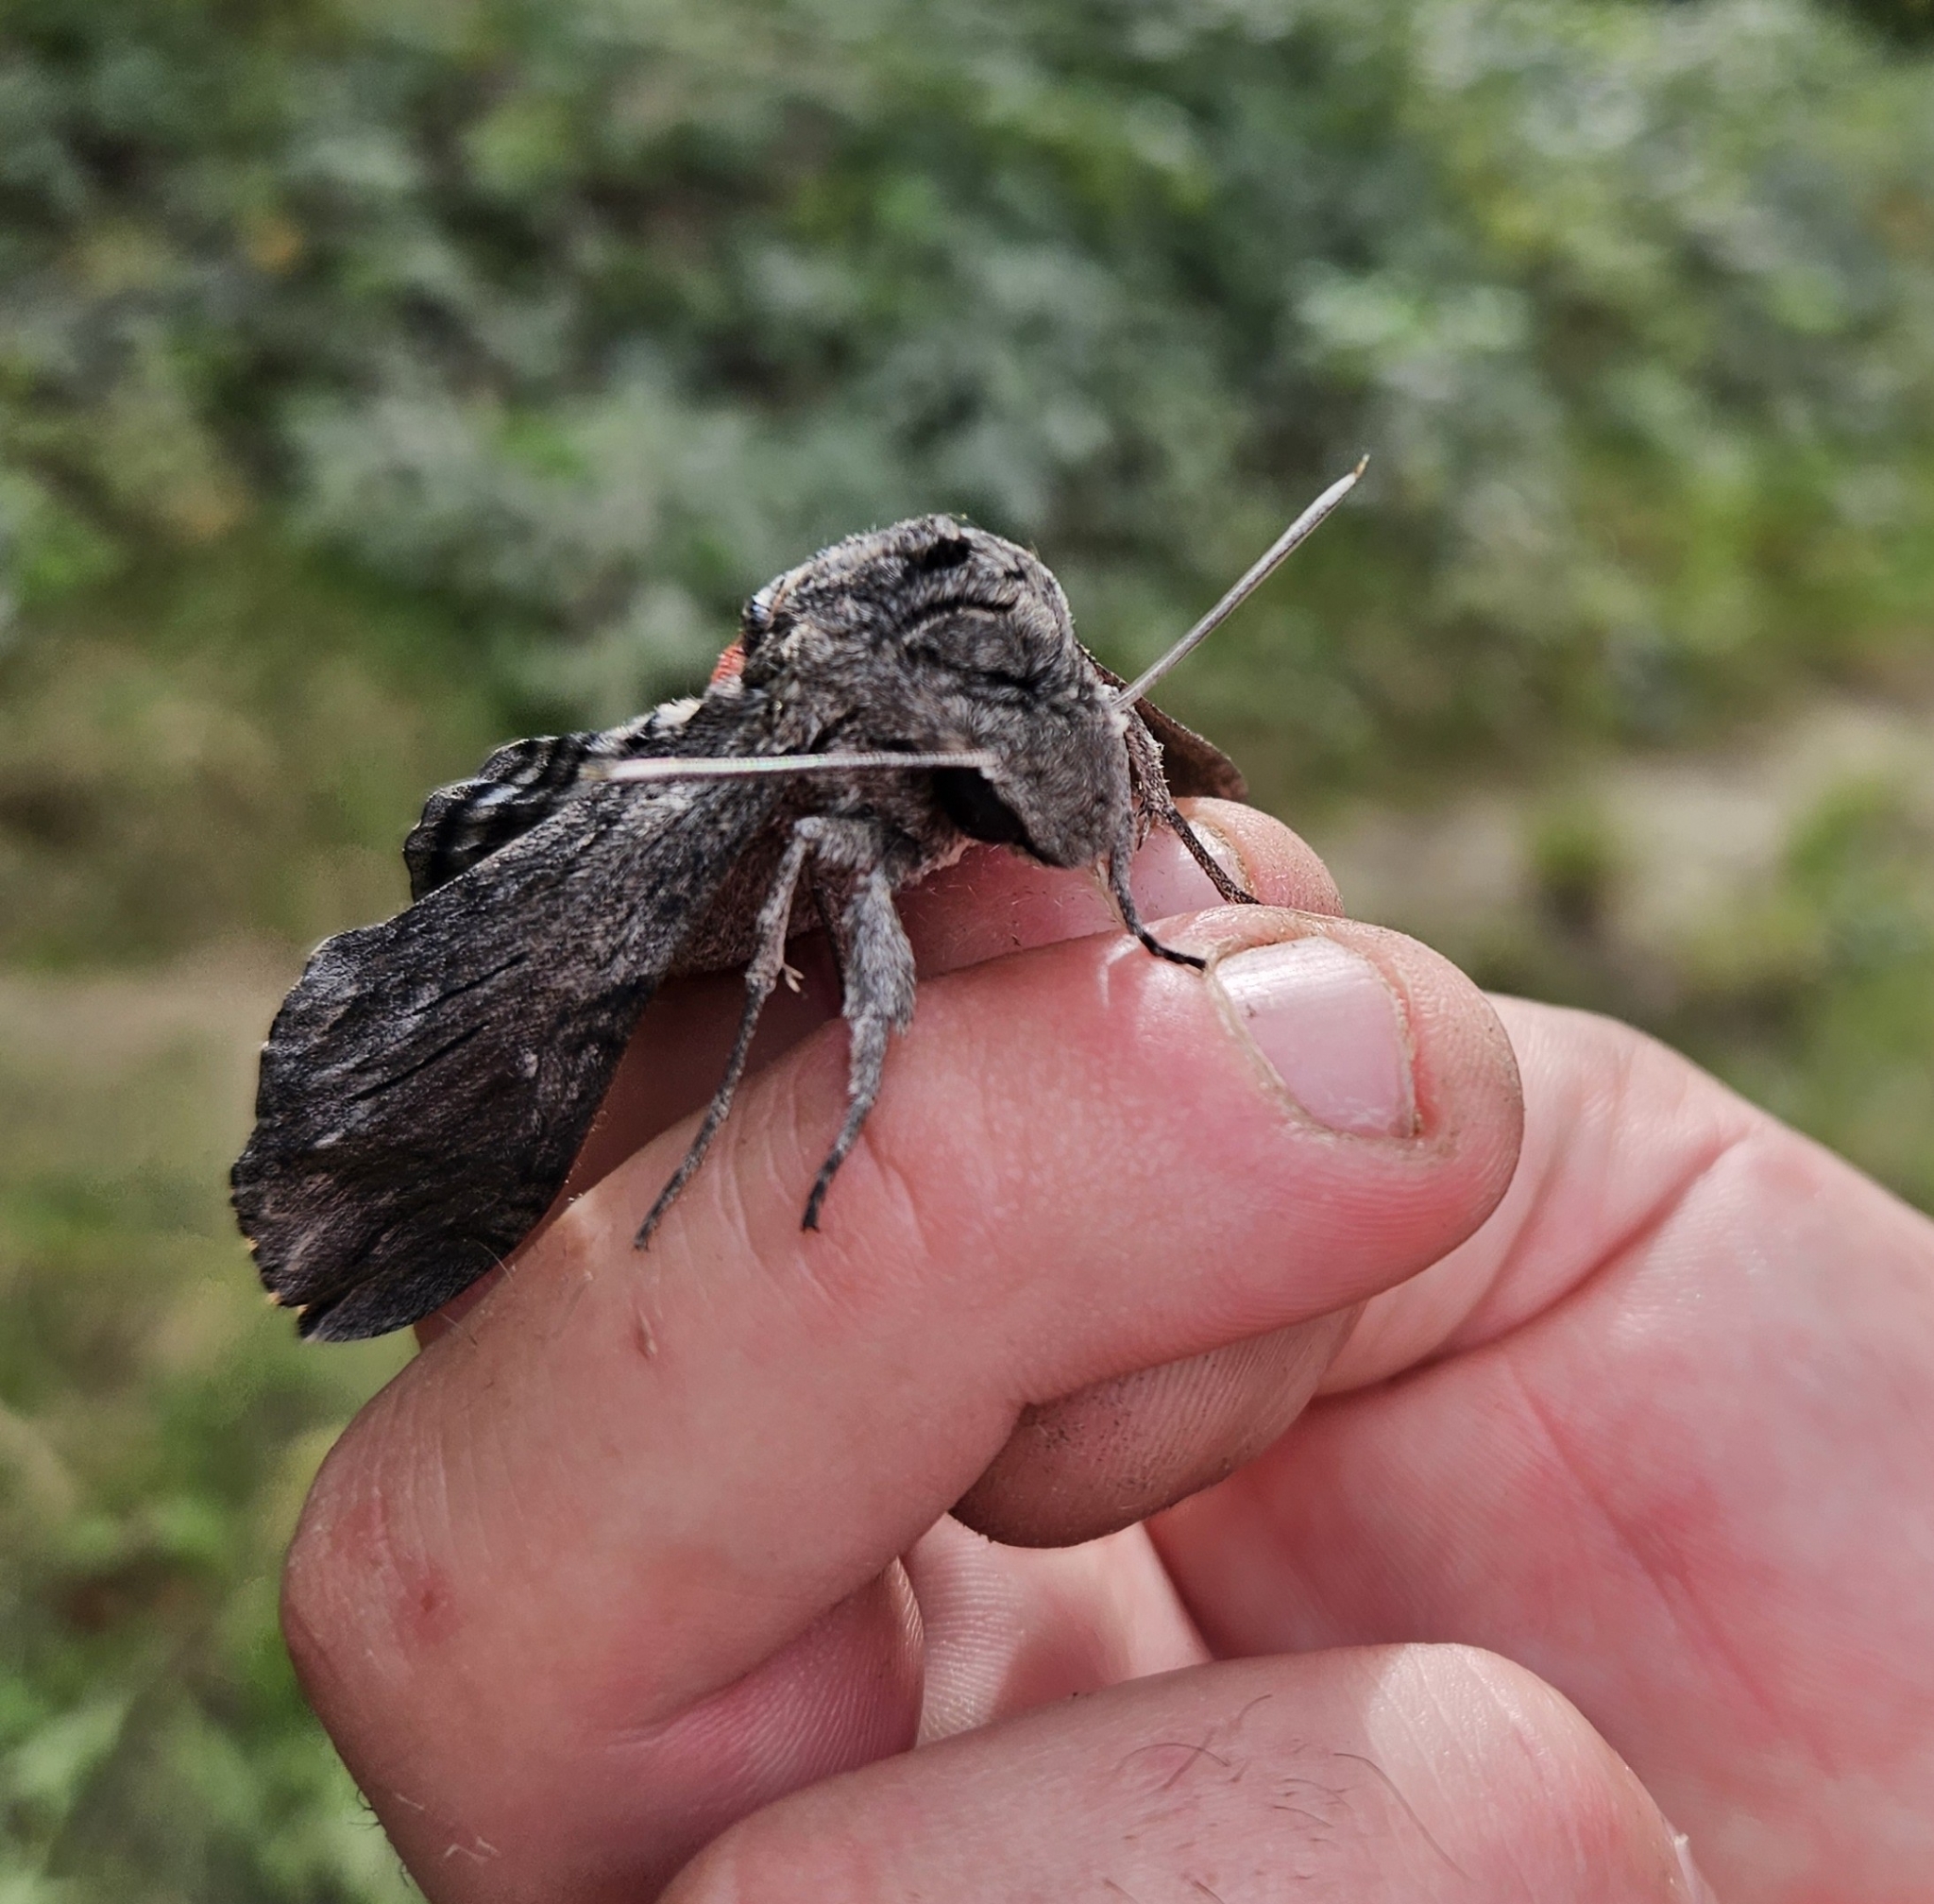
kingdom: Animalia
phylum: Arthropoda
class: Insecta
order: Lepidoptera
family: Sphingidae
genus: Agrius
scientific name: Agrius convolvuli
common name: Convolvulus hawkmoth
